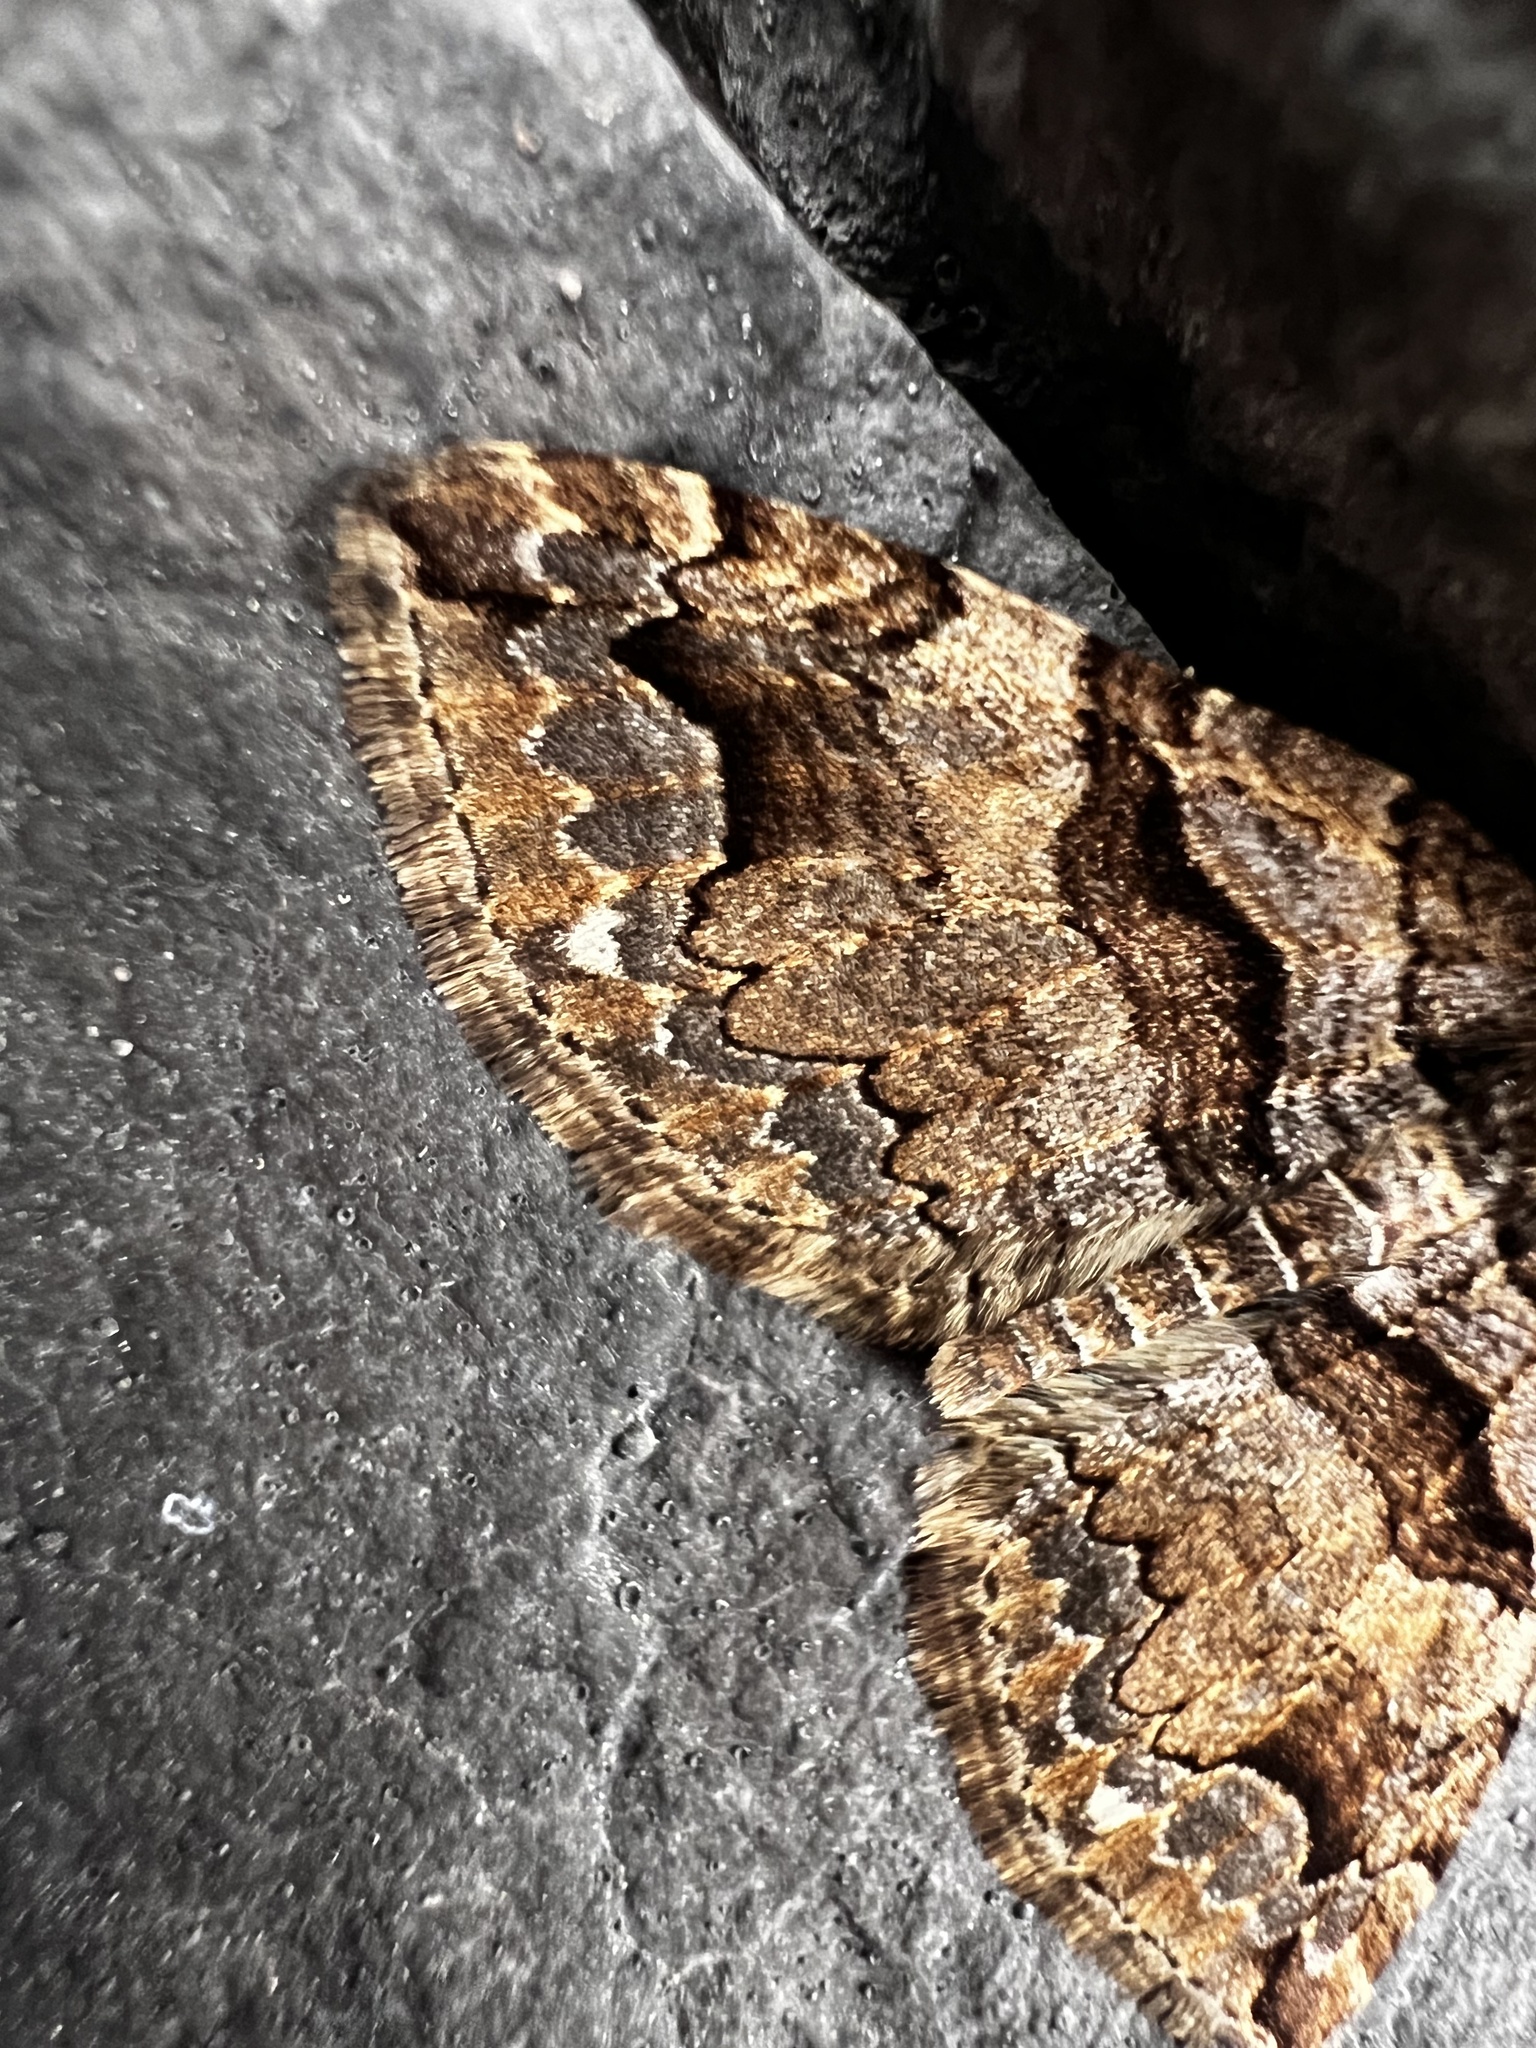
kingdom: Animalia
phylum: Arthropoda
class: Insecta
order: Lepidoptera
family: Geometridae
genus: Anticlea
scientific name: Anticlea vasiliata
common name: Variable carpet
